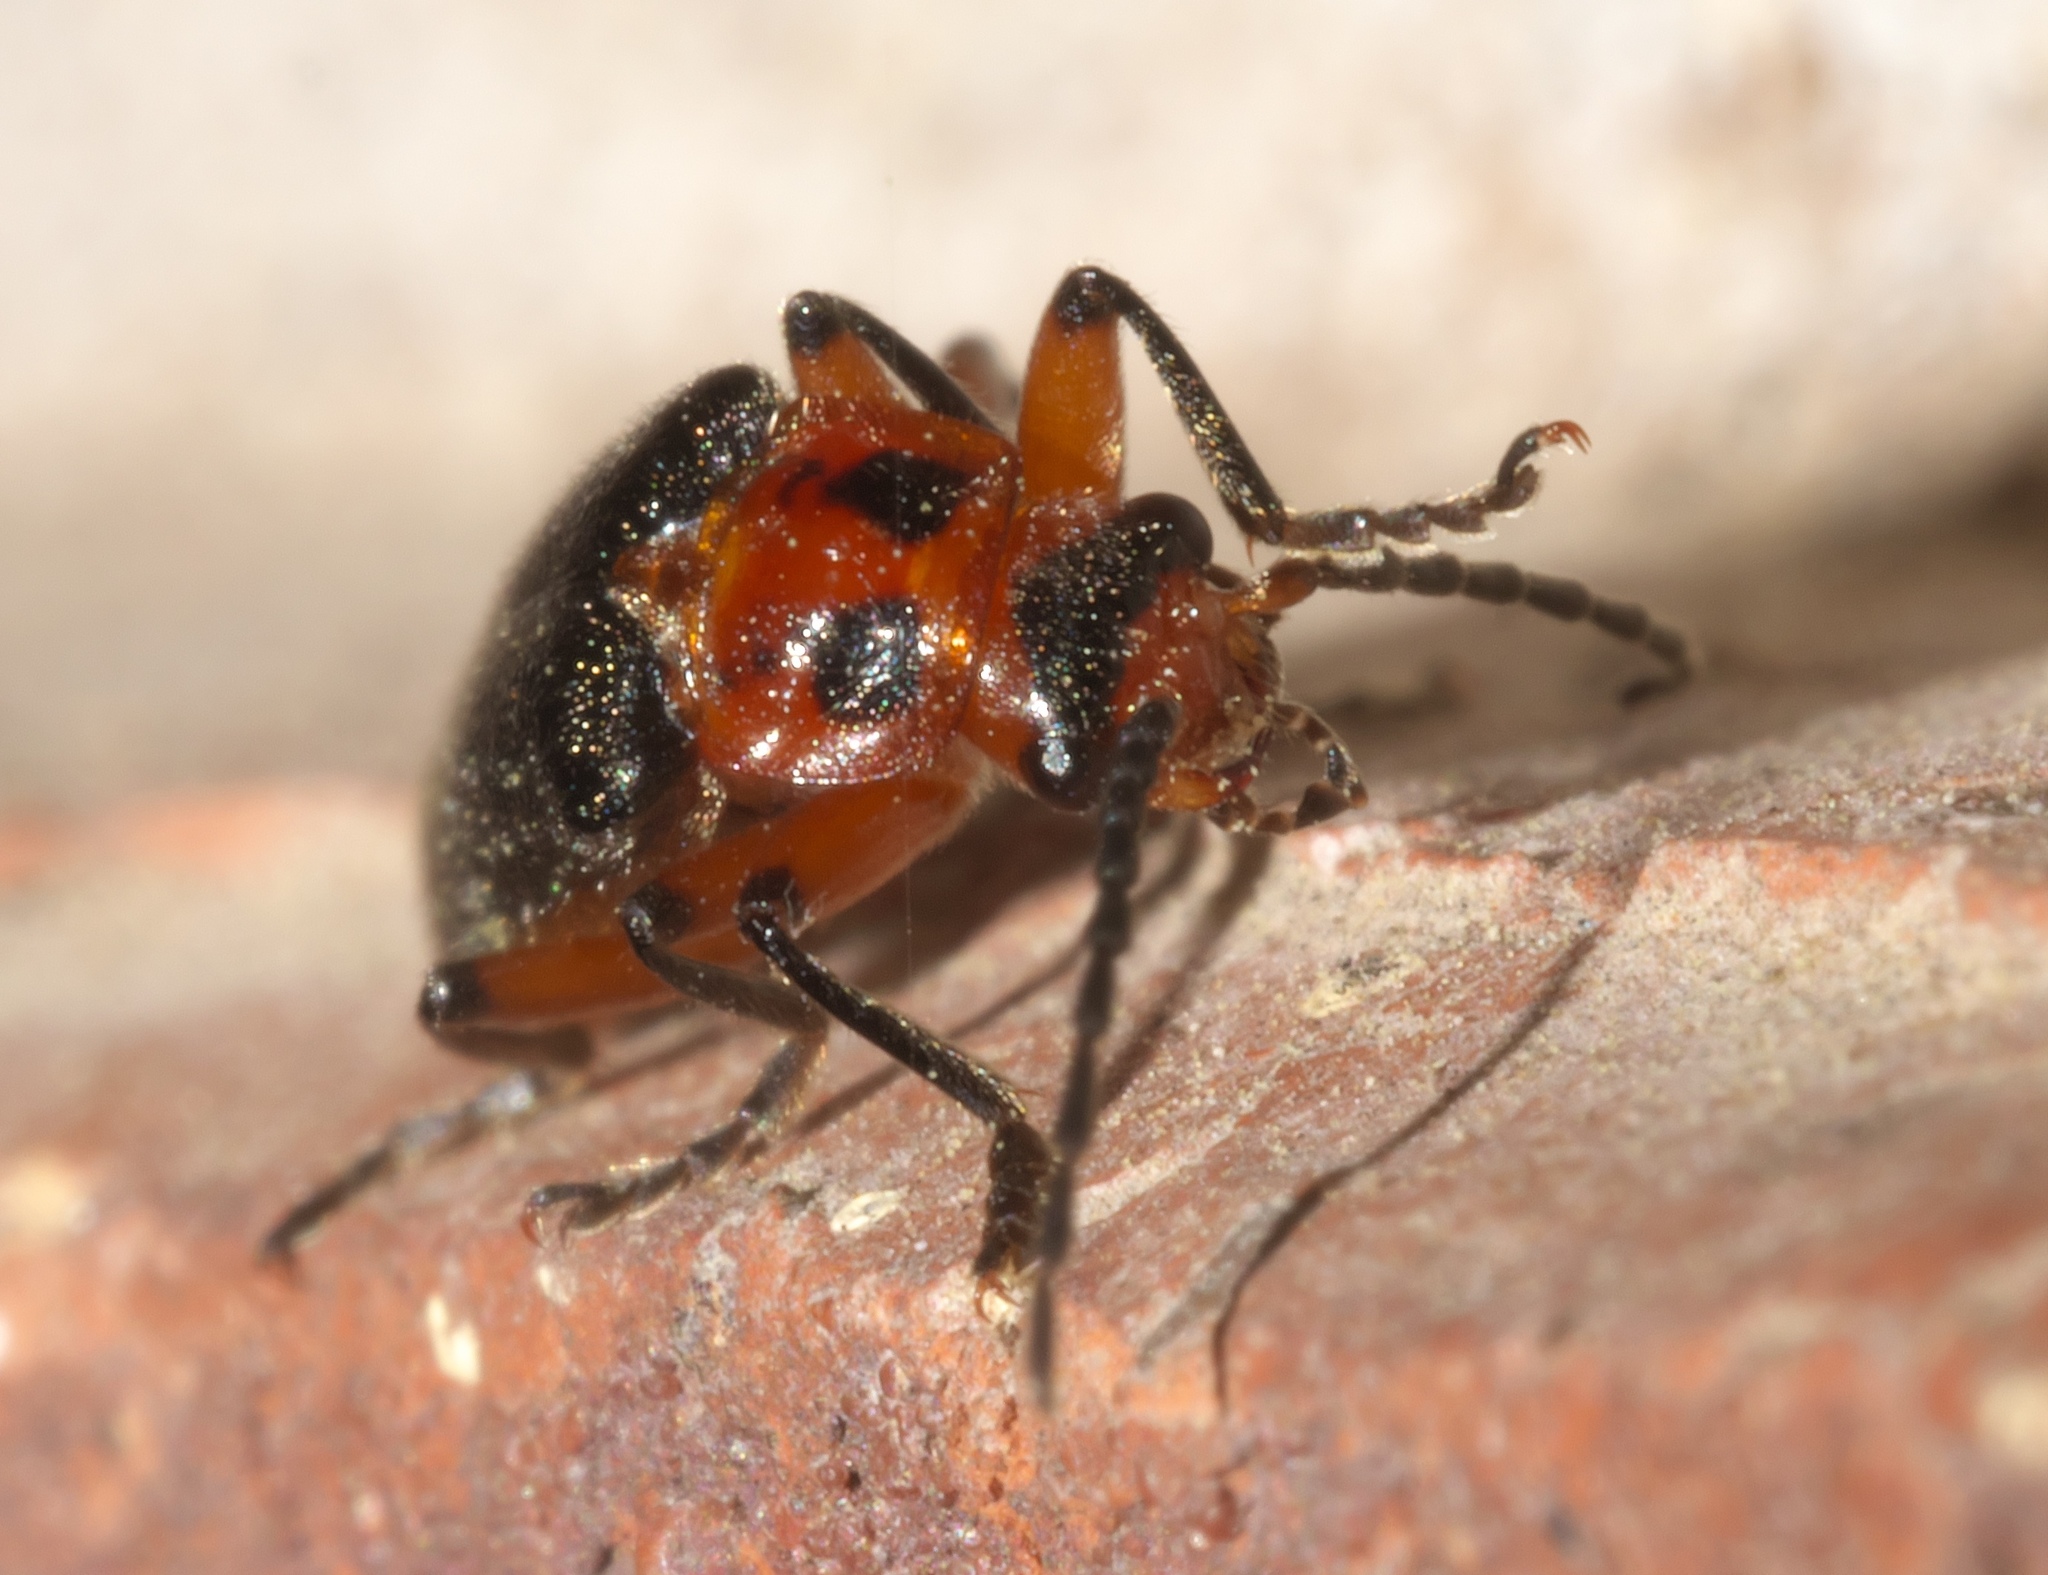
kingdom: Animalia
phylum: Arthropoda
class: Insecta
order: Coleoptera
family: Cantharidae
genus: Atalantycha
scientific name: Atalantycha bilineata
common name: Two-lined leatherwing
